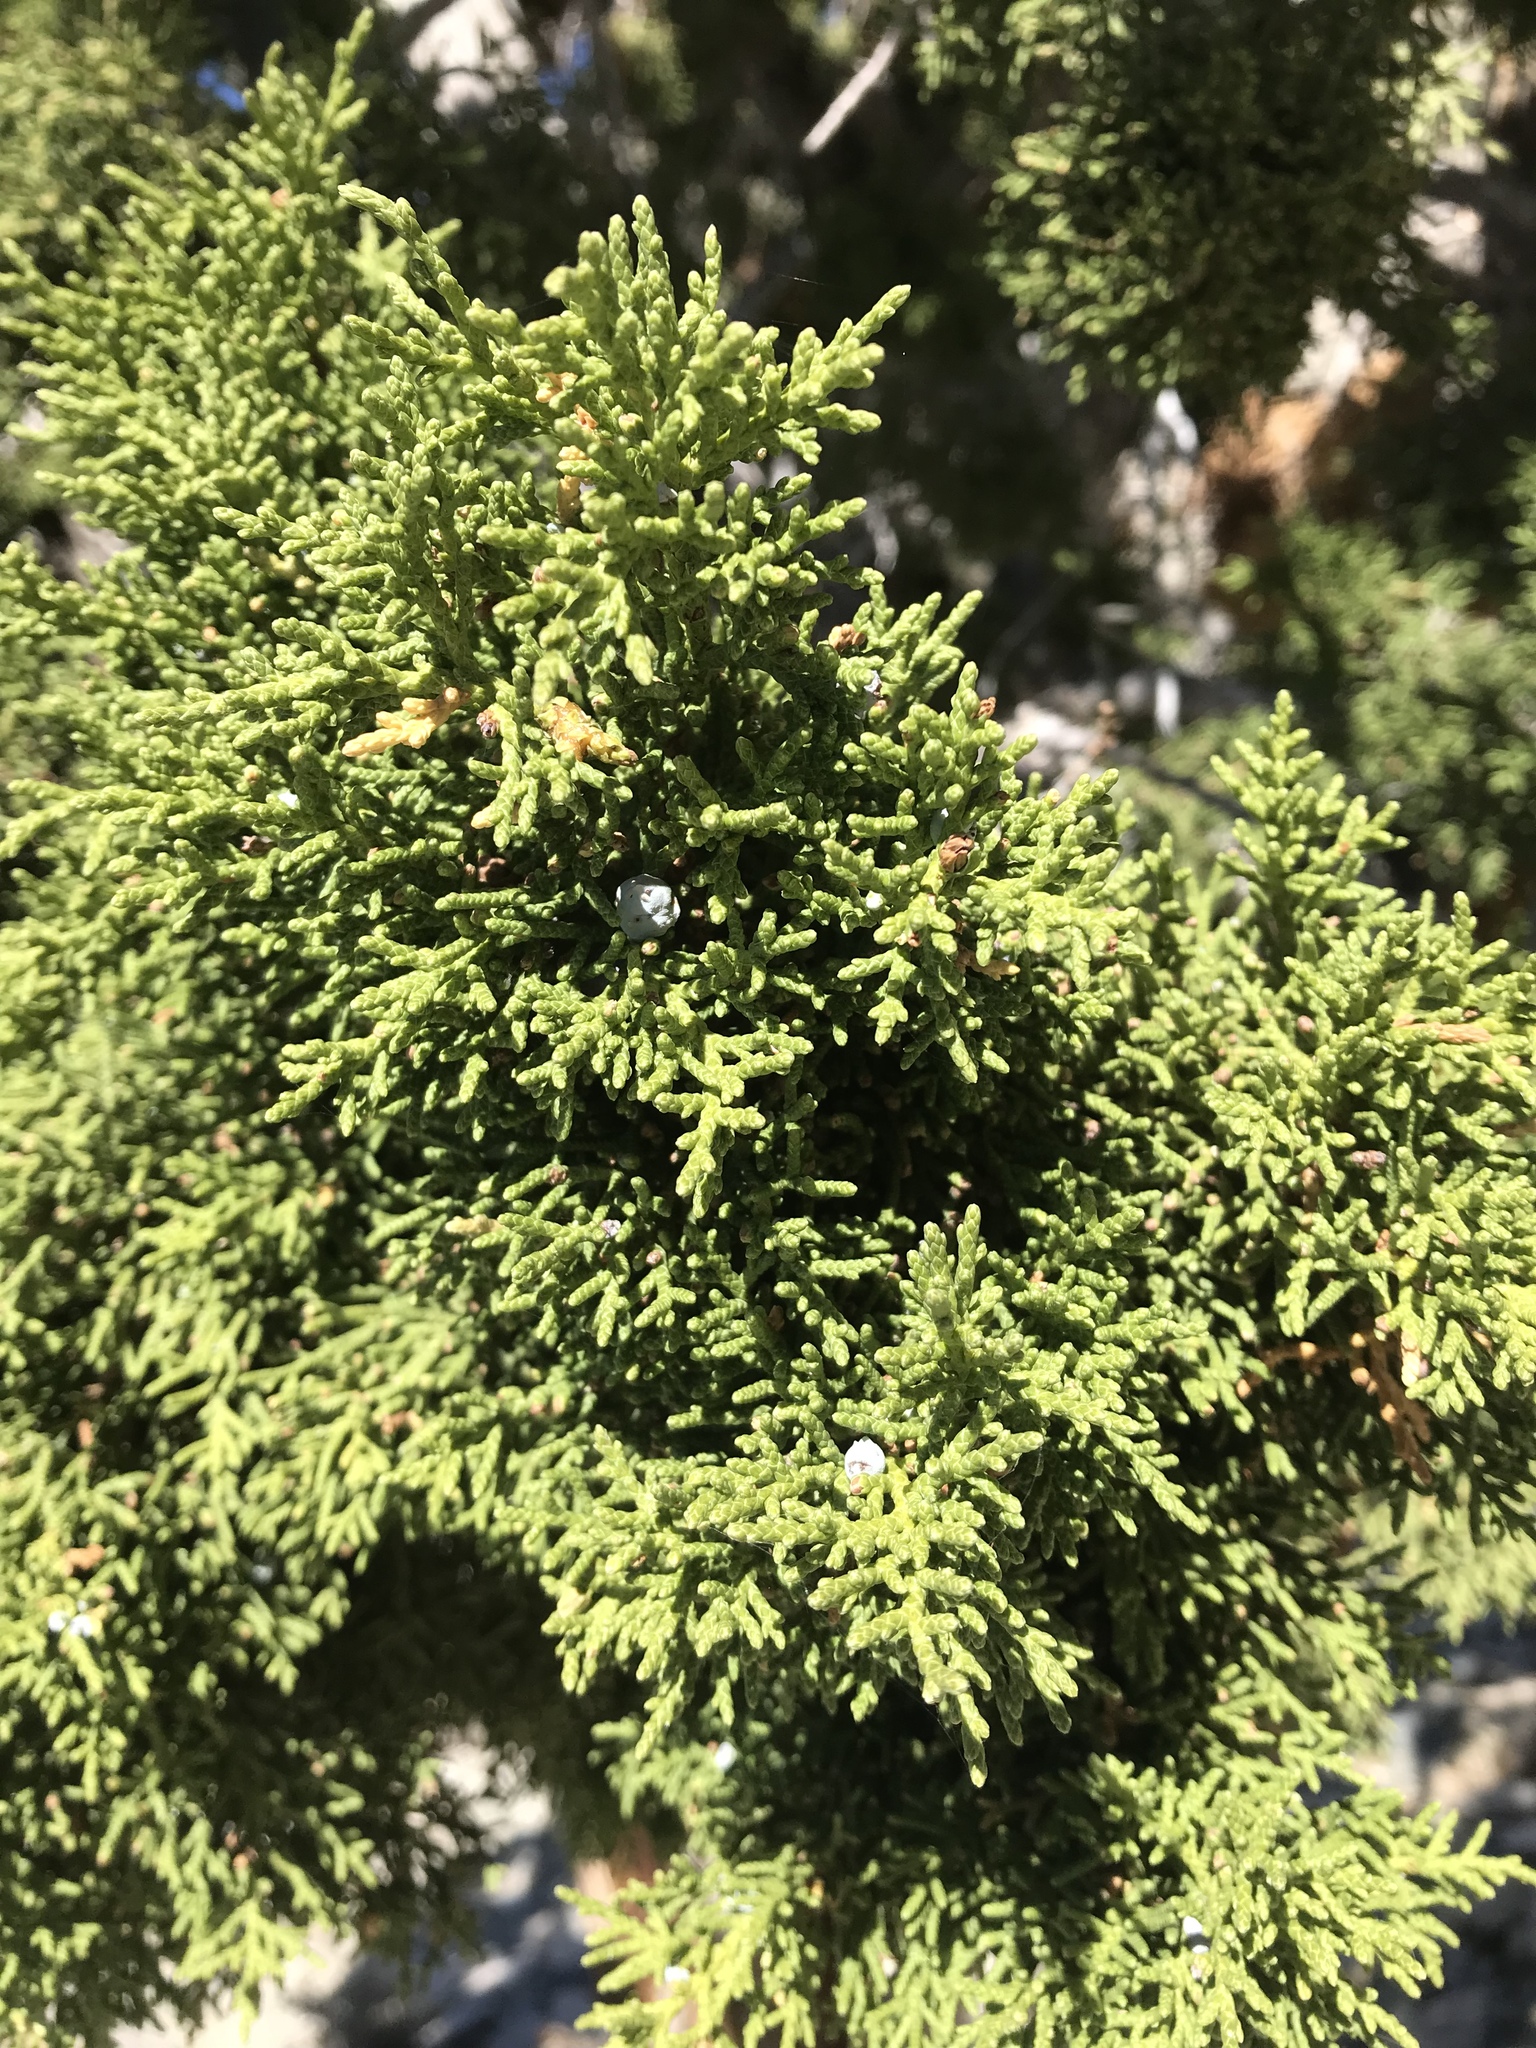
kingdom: Plantae
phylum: Tracheophyta
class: Pinopsida
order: Pinales
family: Cupressaceae
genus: Juniperus
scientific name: Juniperus osteosperma
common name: Utah juniper
